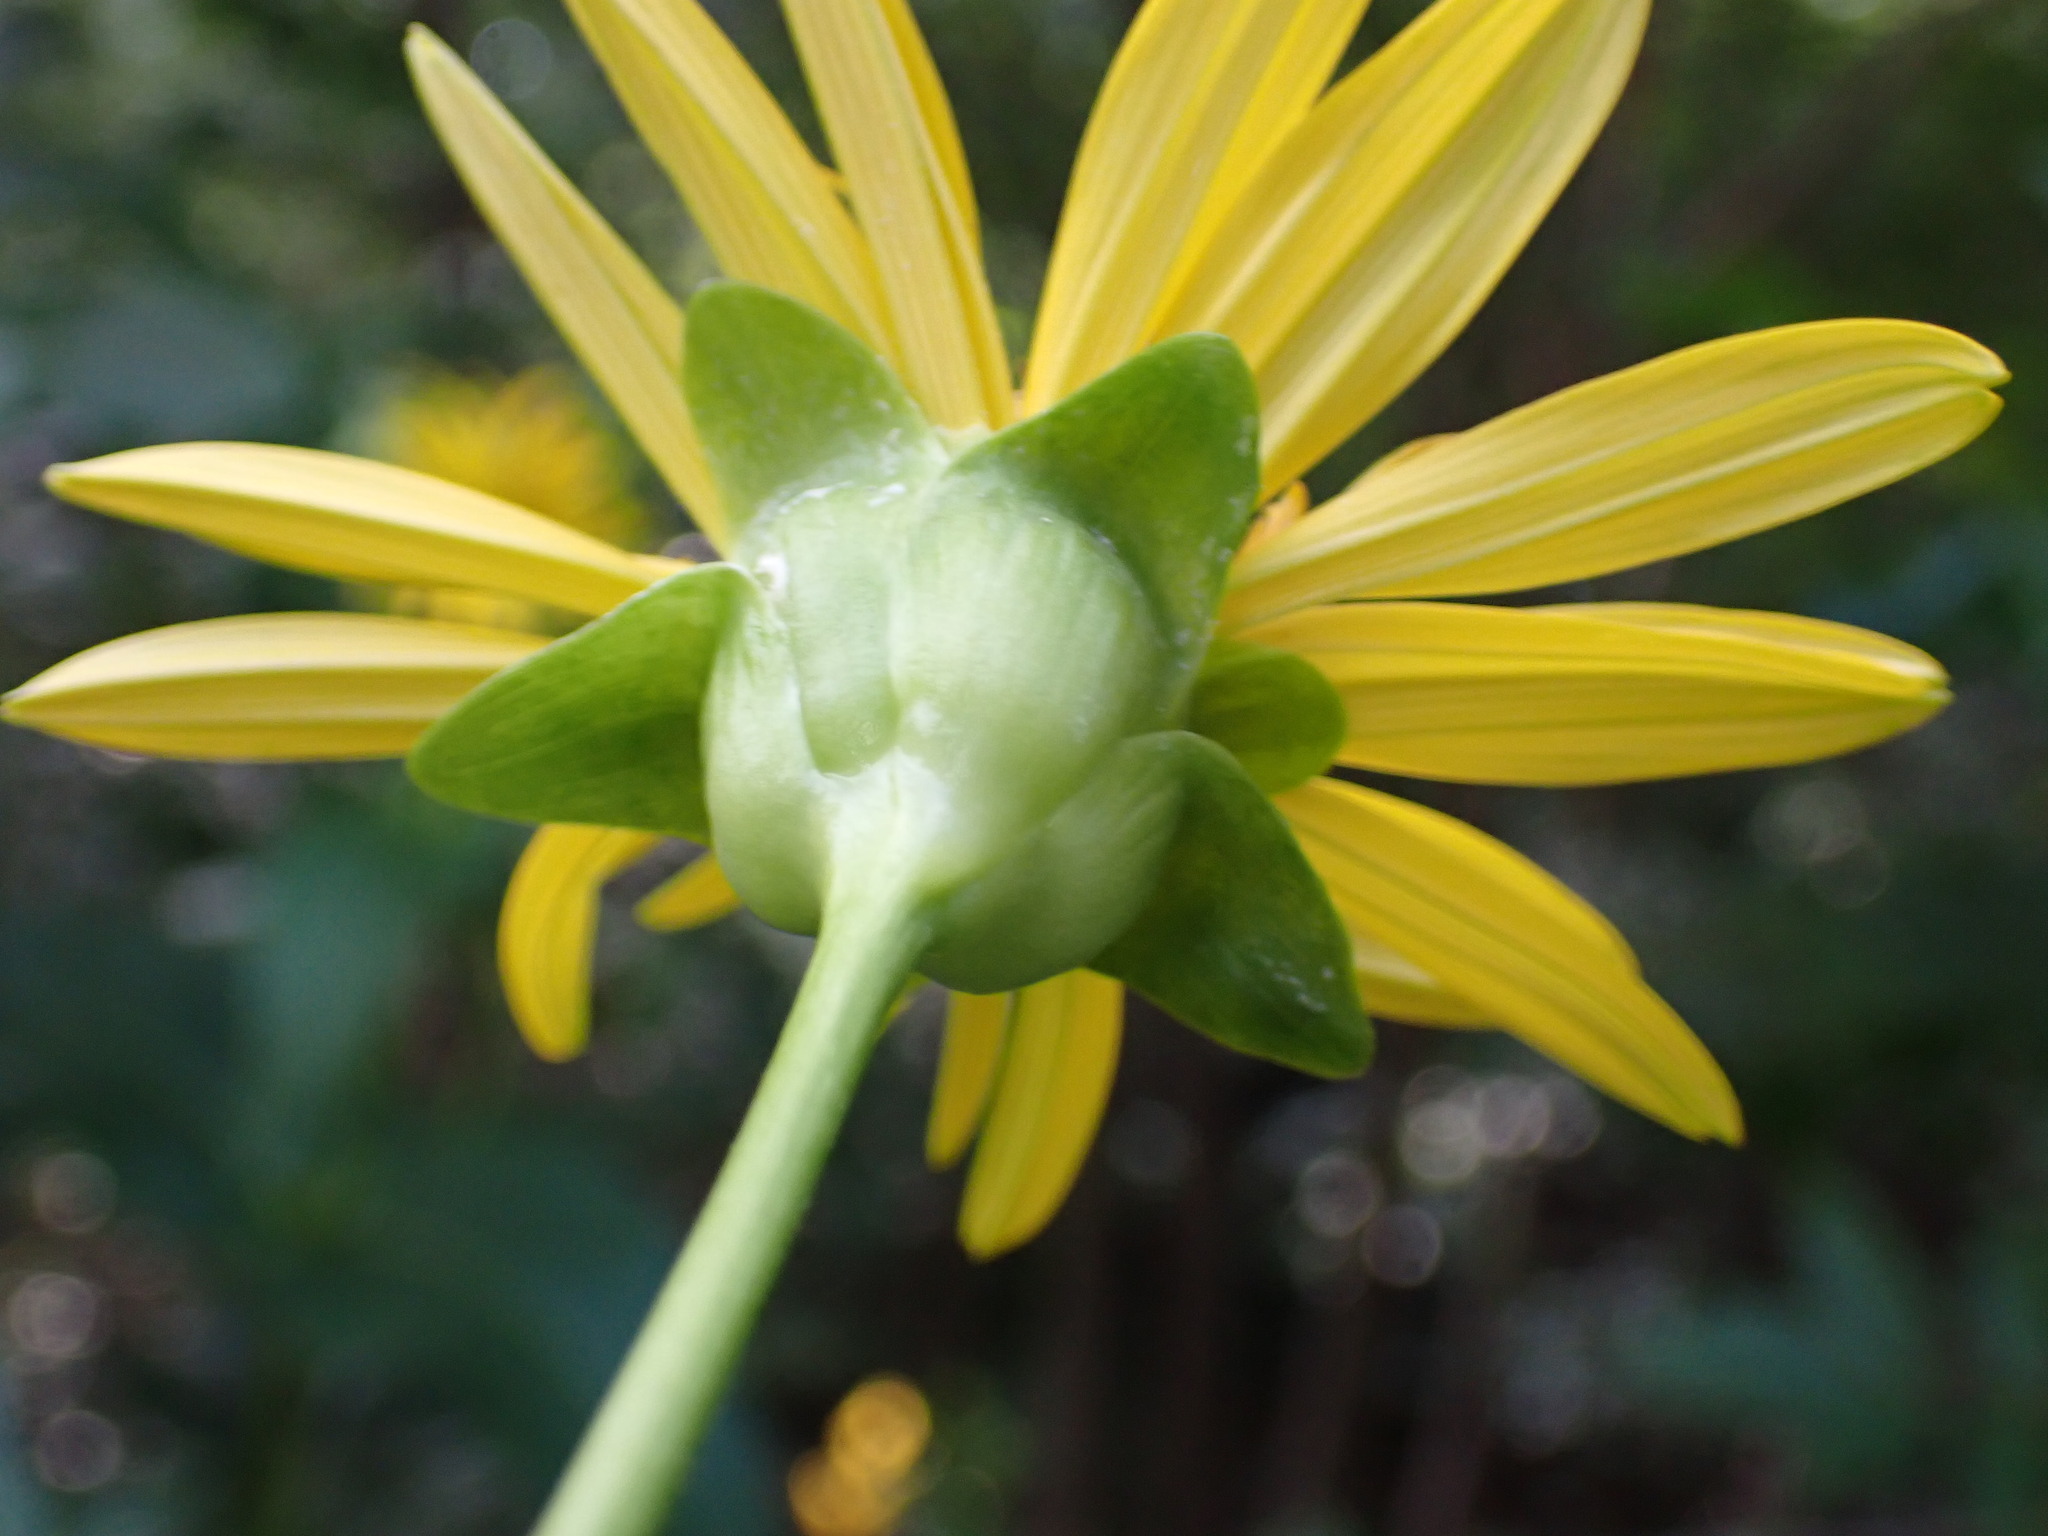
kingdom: Plantae
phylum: Tracheophyta
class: Magnoliopsida
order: Asterales
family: Asteraceae
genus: Silphium
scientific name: Silphium perfoliatum
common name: Cup-plant
